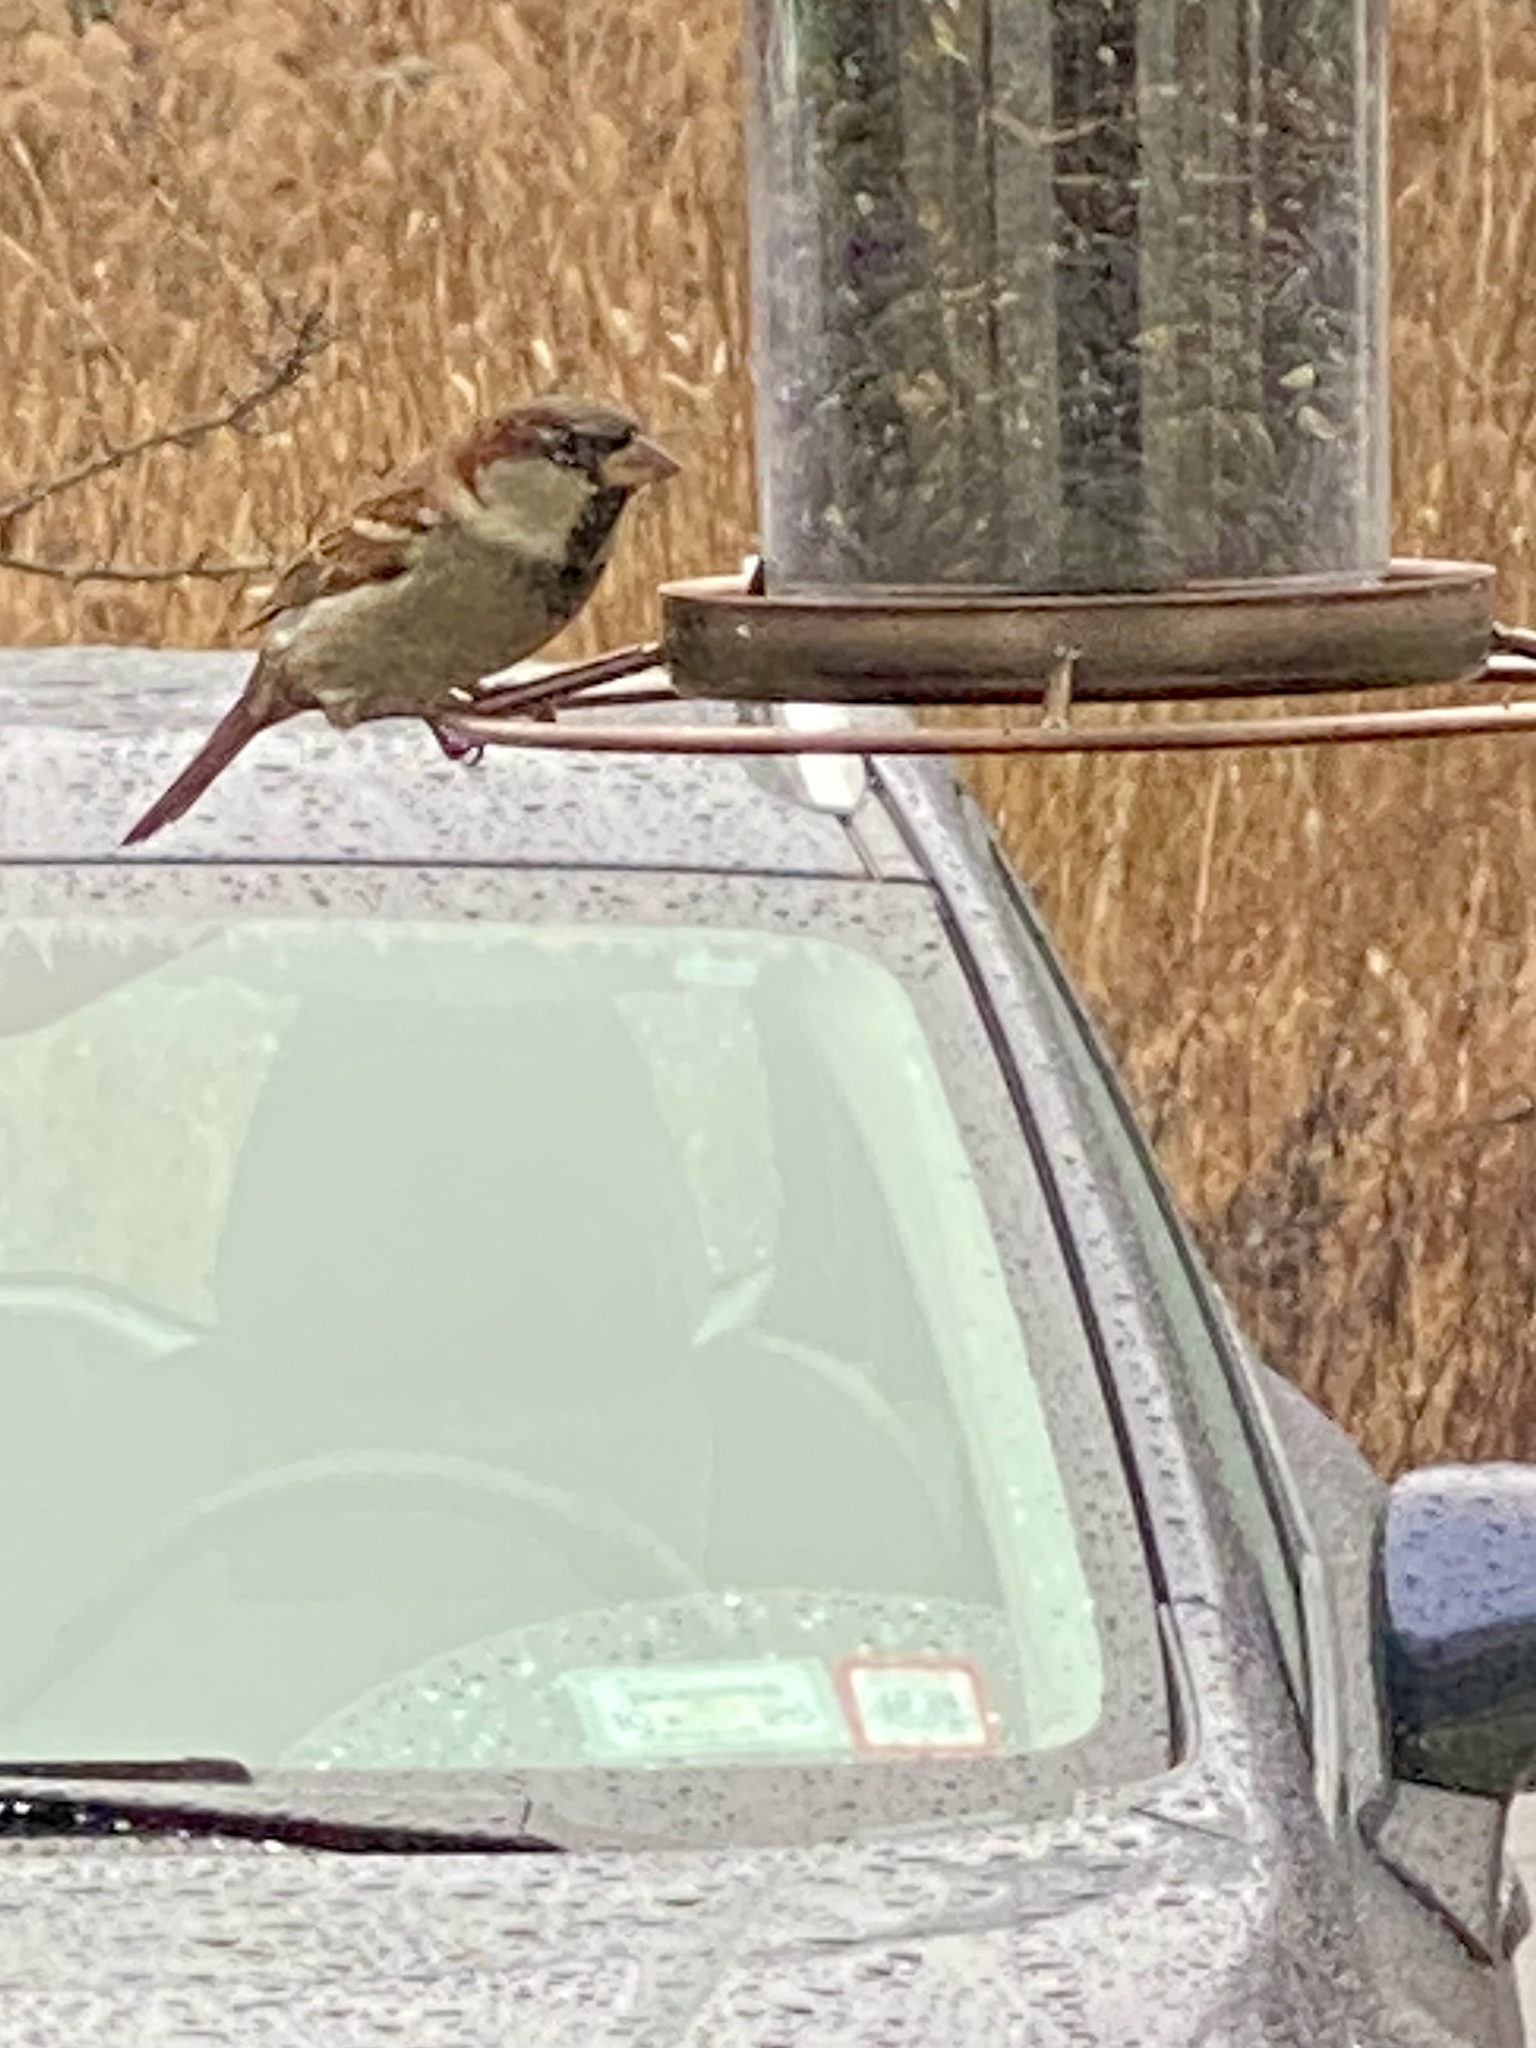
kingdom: Animalia
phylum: Chordata
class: Aves
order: Passeriformes
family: Passeridae
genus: Passer
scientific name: Passer domesticus
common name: House sparrow
